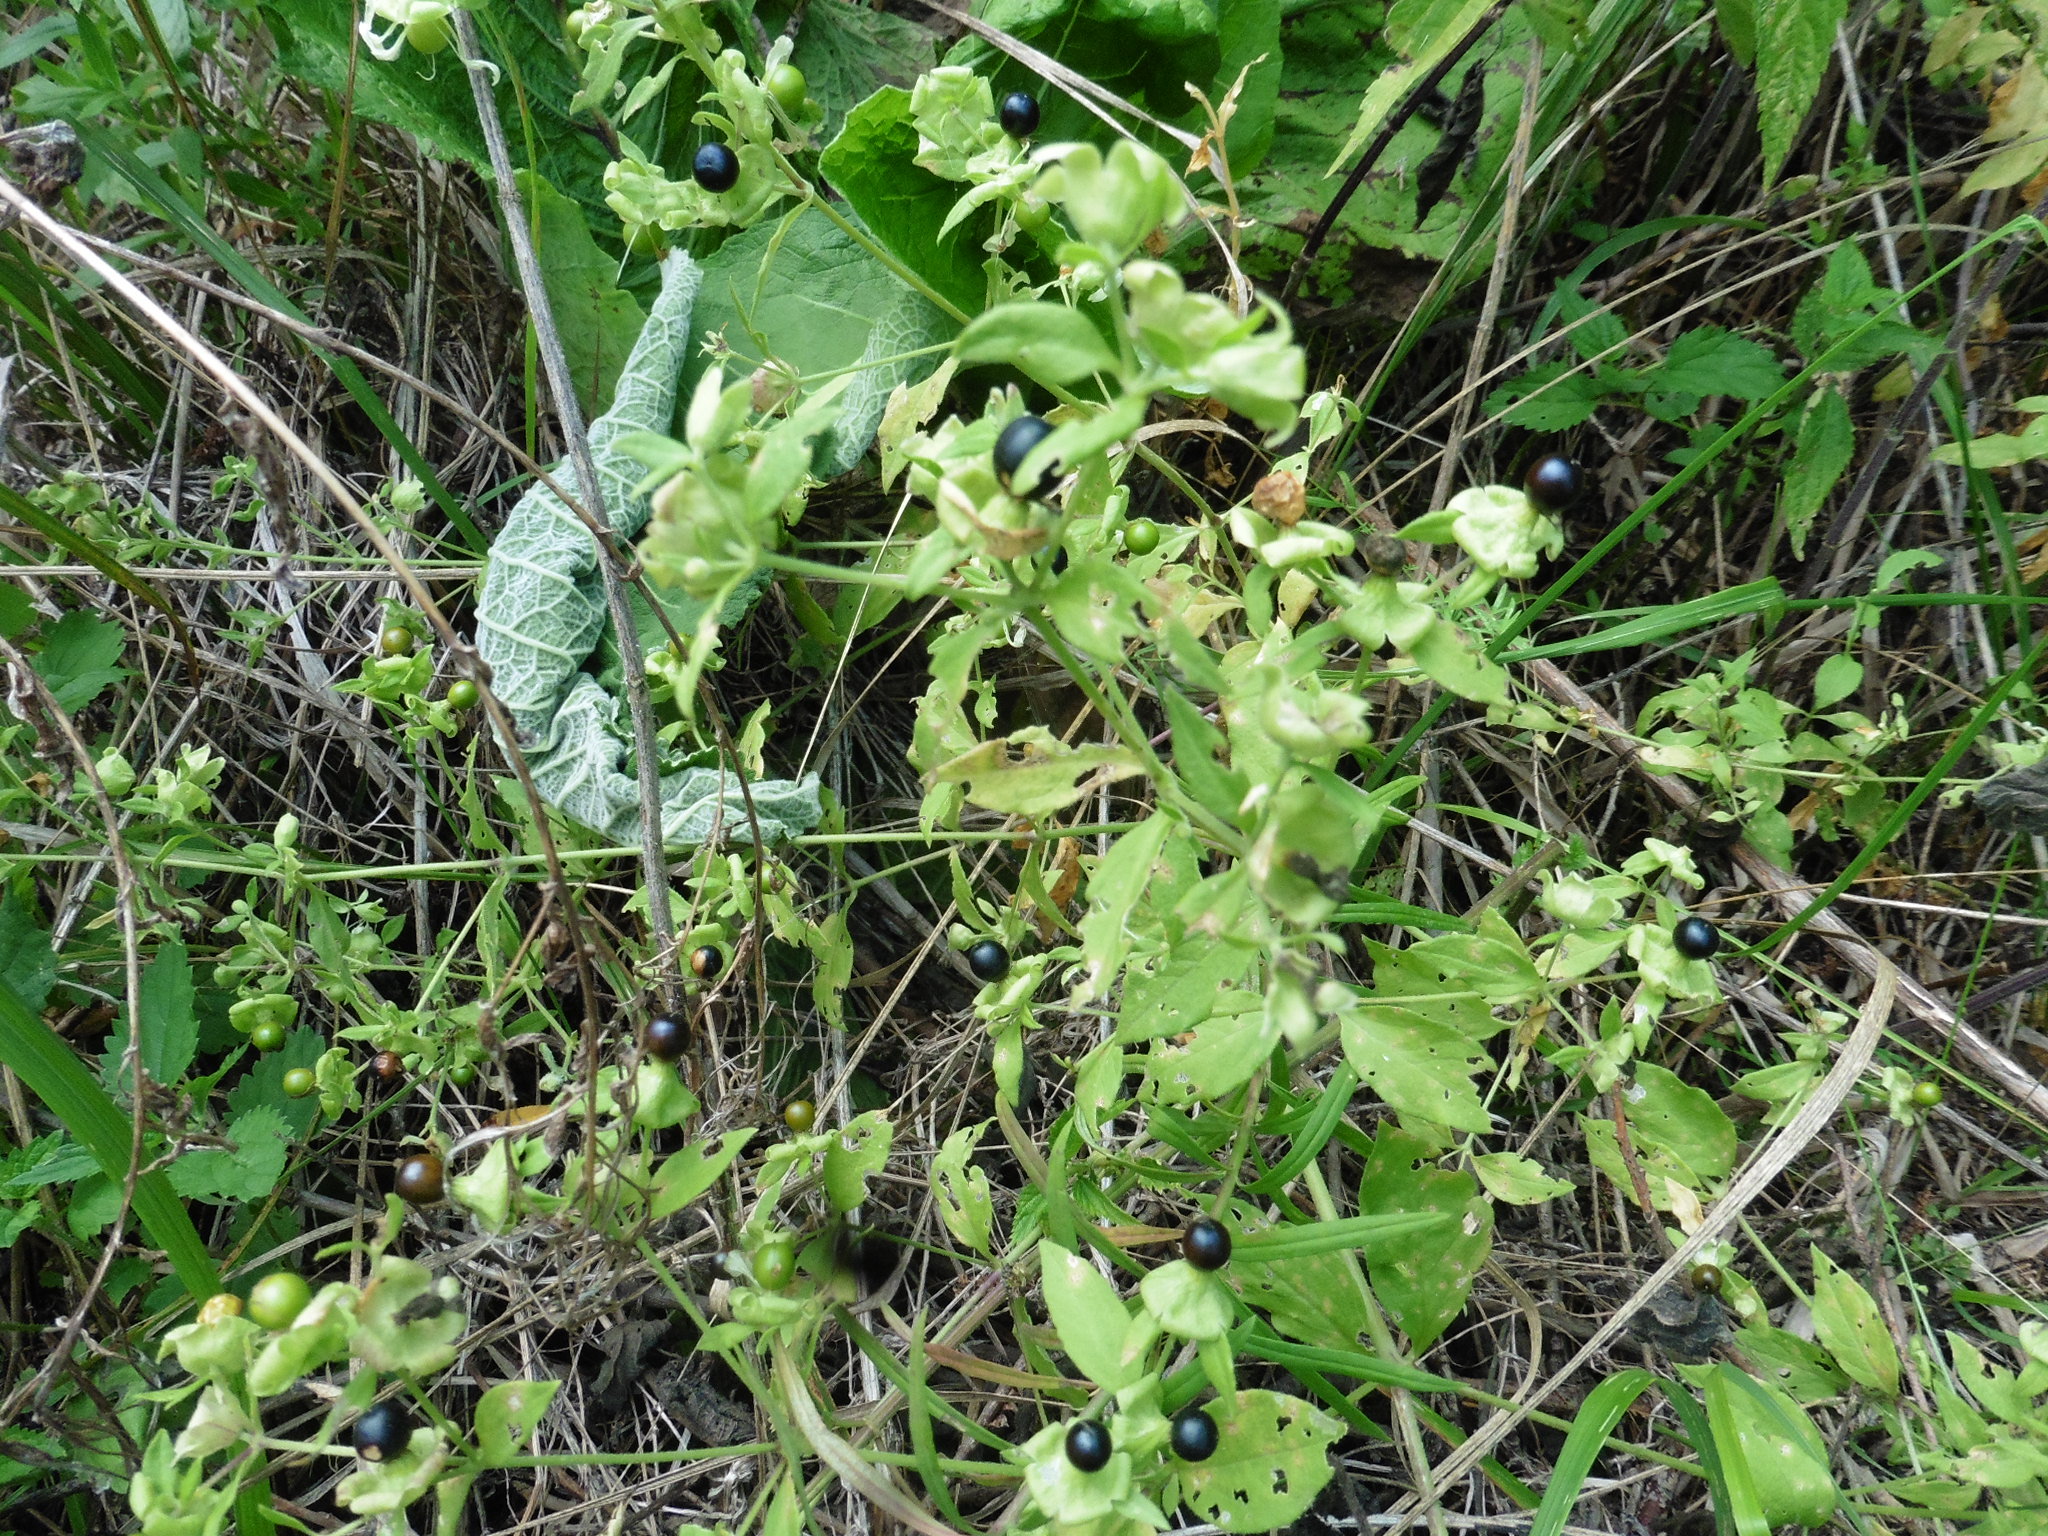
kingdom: Plantae
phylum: Tracheophyta
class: Magnoliopsida
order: Caryophyllales
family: Caryophyllaceae
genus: Silene
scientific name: Silene baccifera
